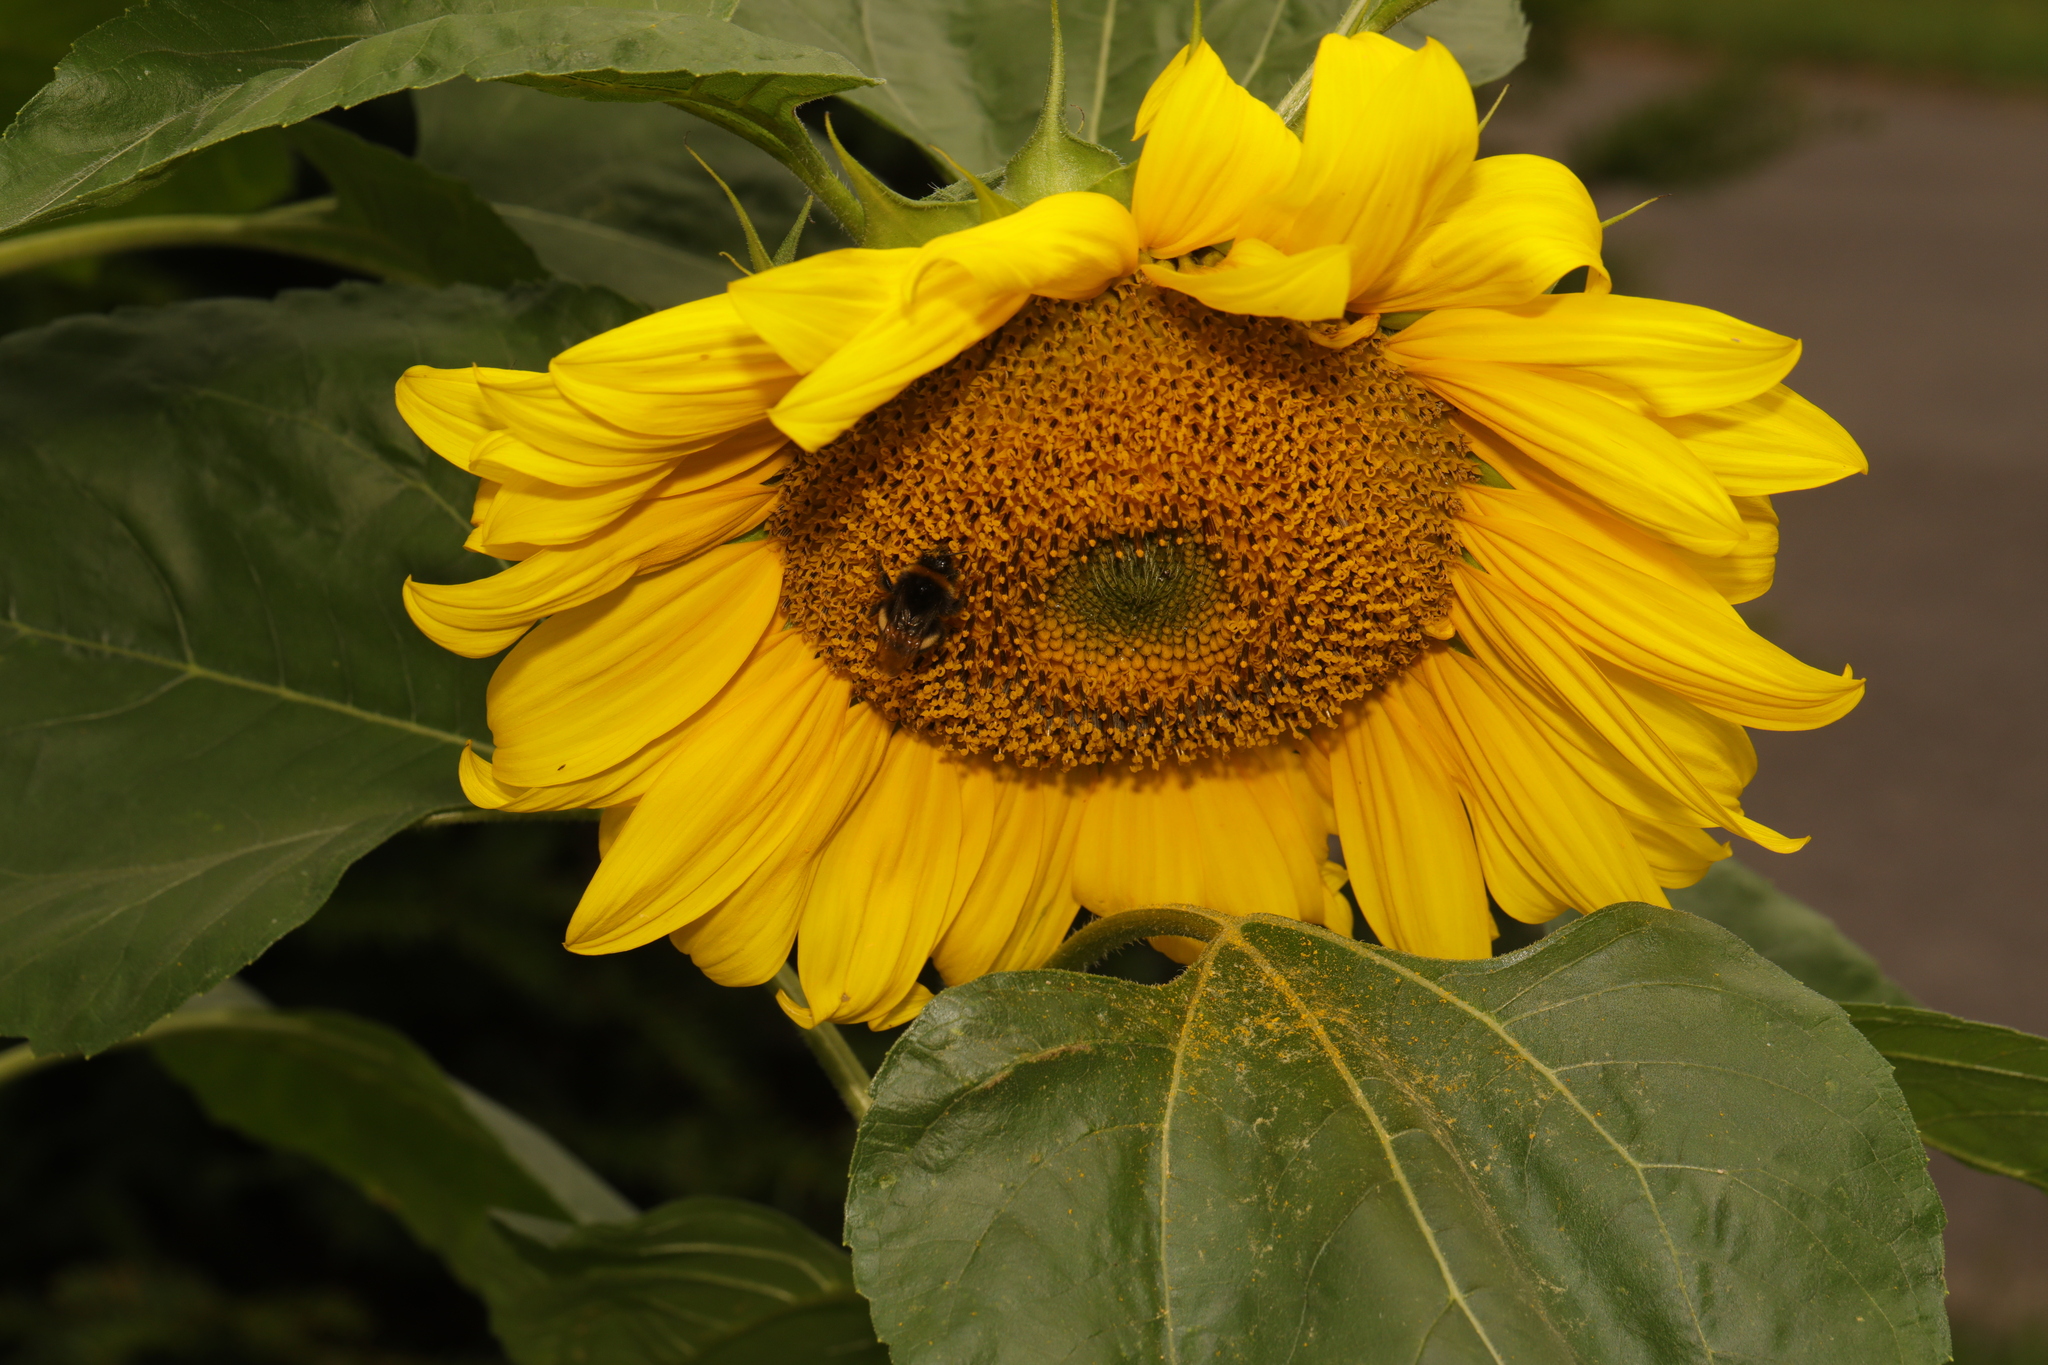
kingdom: Plantae
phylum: Tracheophyta
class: Magnoliopsida
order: Asterales
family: Asteraceae
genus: Helianthus
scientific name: Helianthus annuus
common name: Sunflower
